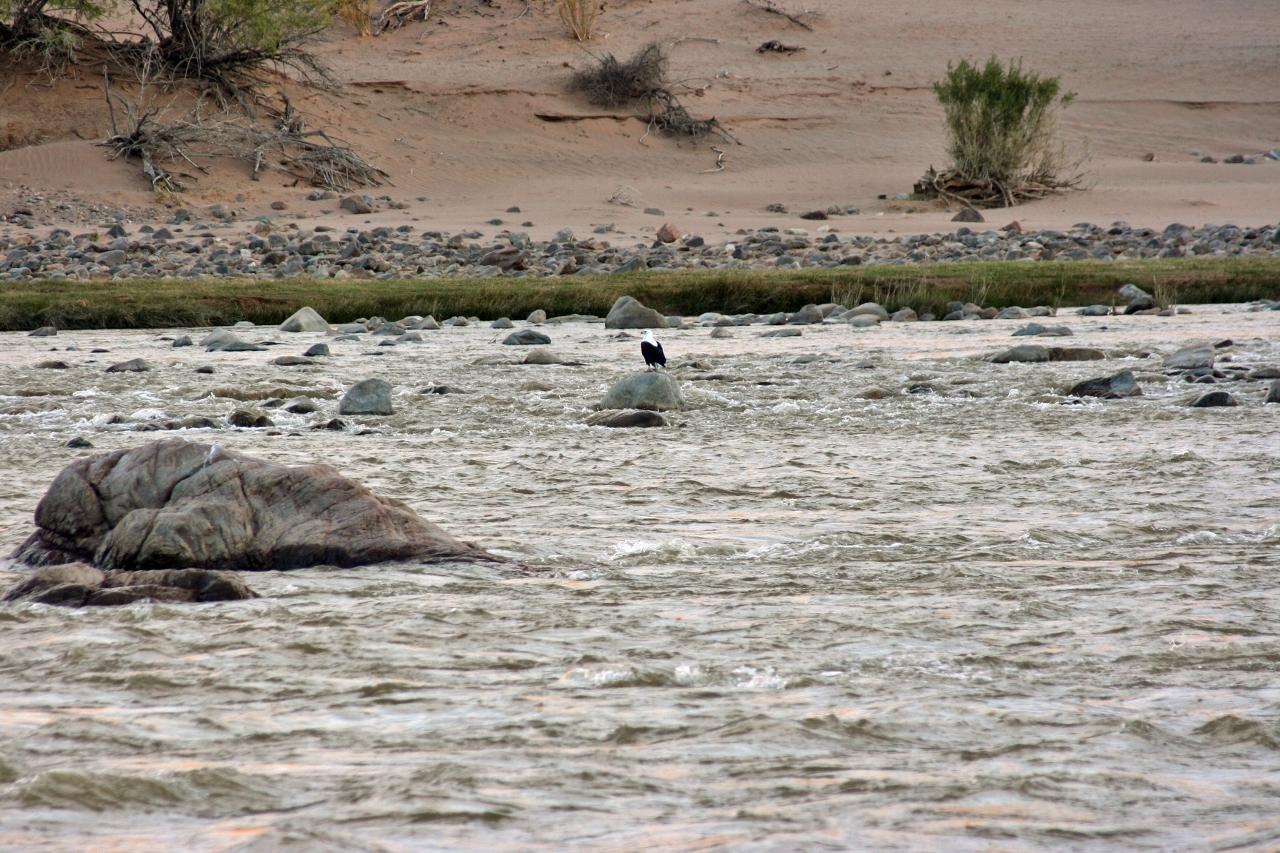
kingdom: Animalia
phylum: Chordata
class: Aves
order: Accipitriformes
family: Accipitridae
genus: Haliaeetus
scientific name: Haliaeetus vocifer
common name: African fish eagle
